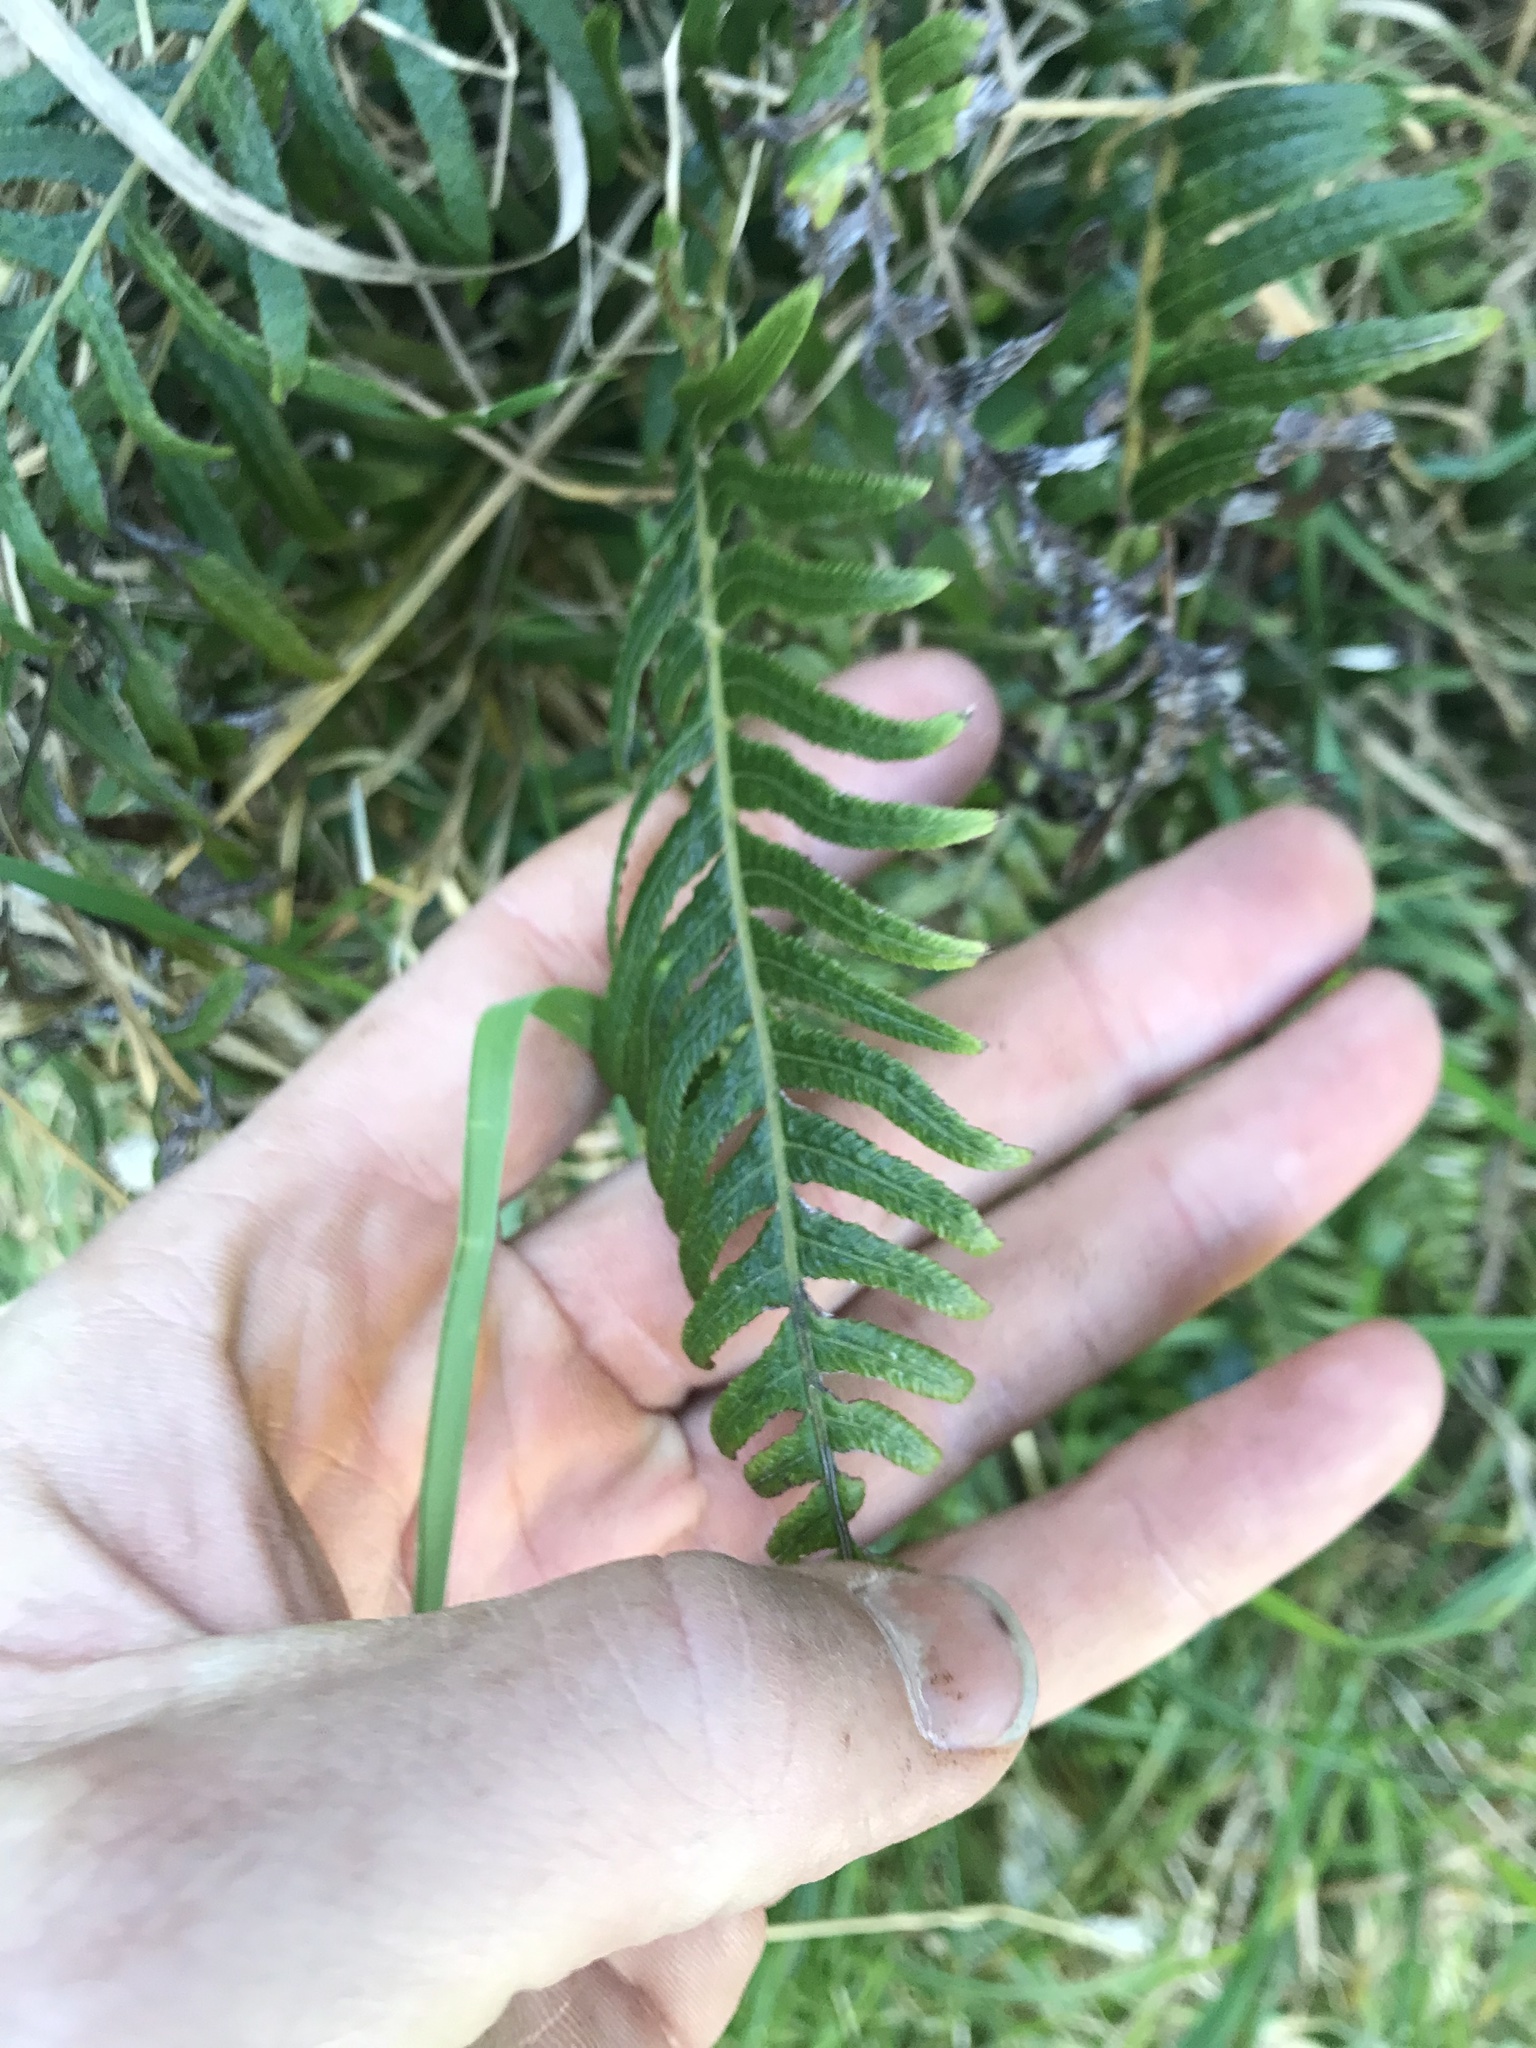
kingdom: Plantae
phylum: Tracheophyta
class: Polypodiopsida
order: Polypodiales
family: Blechnaceae
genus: Doodia
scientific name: Doodia australis
